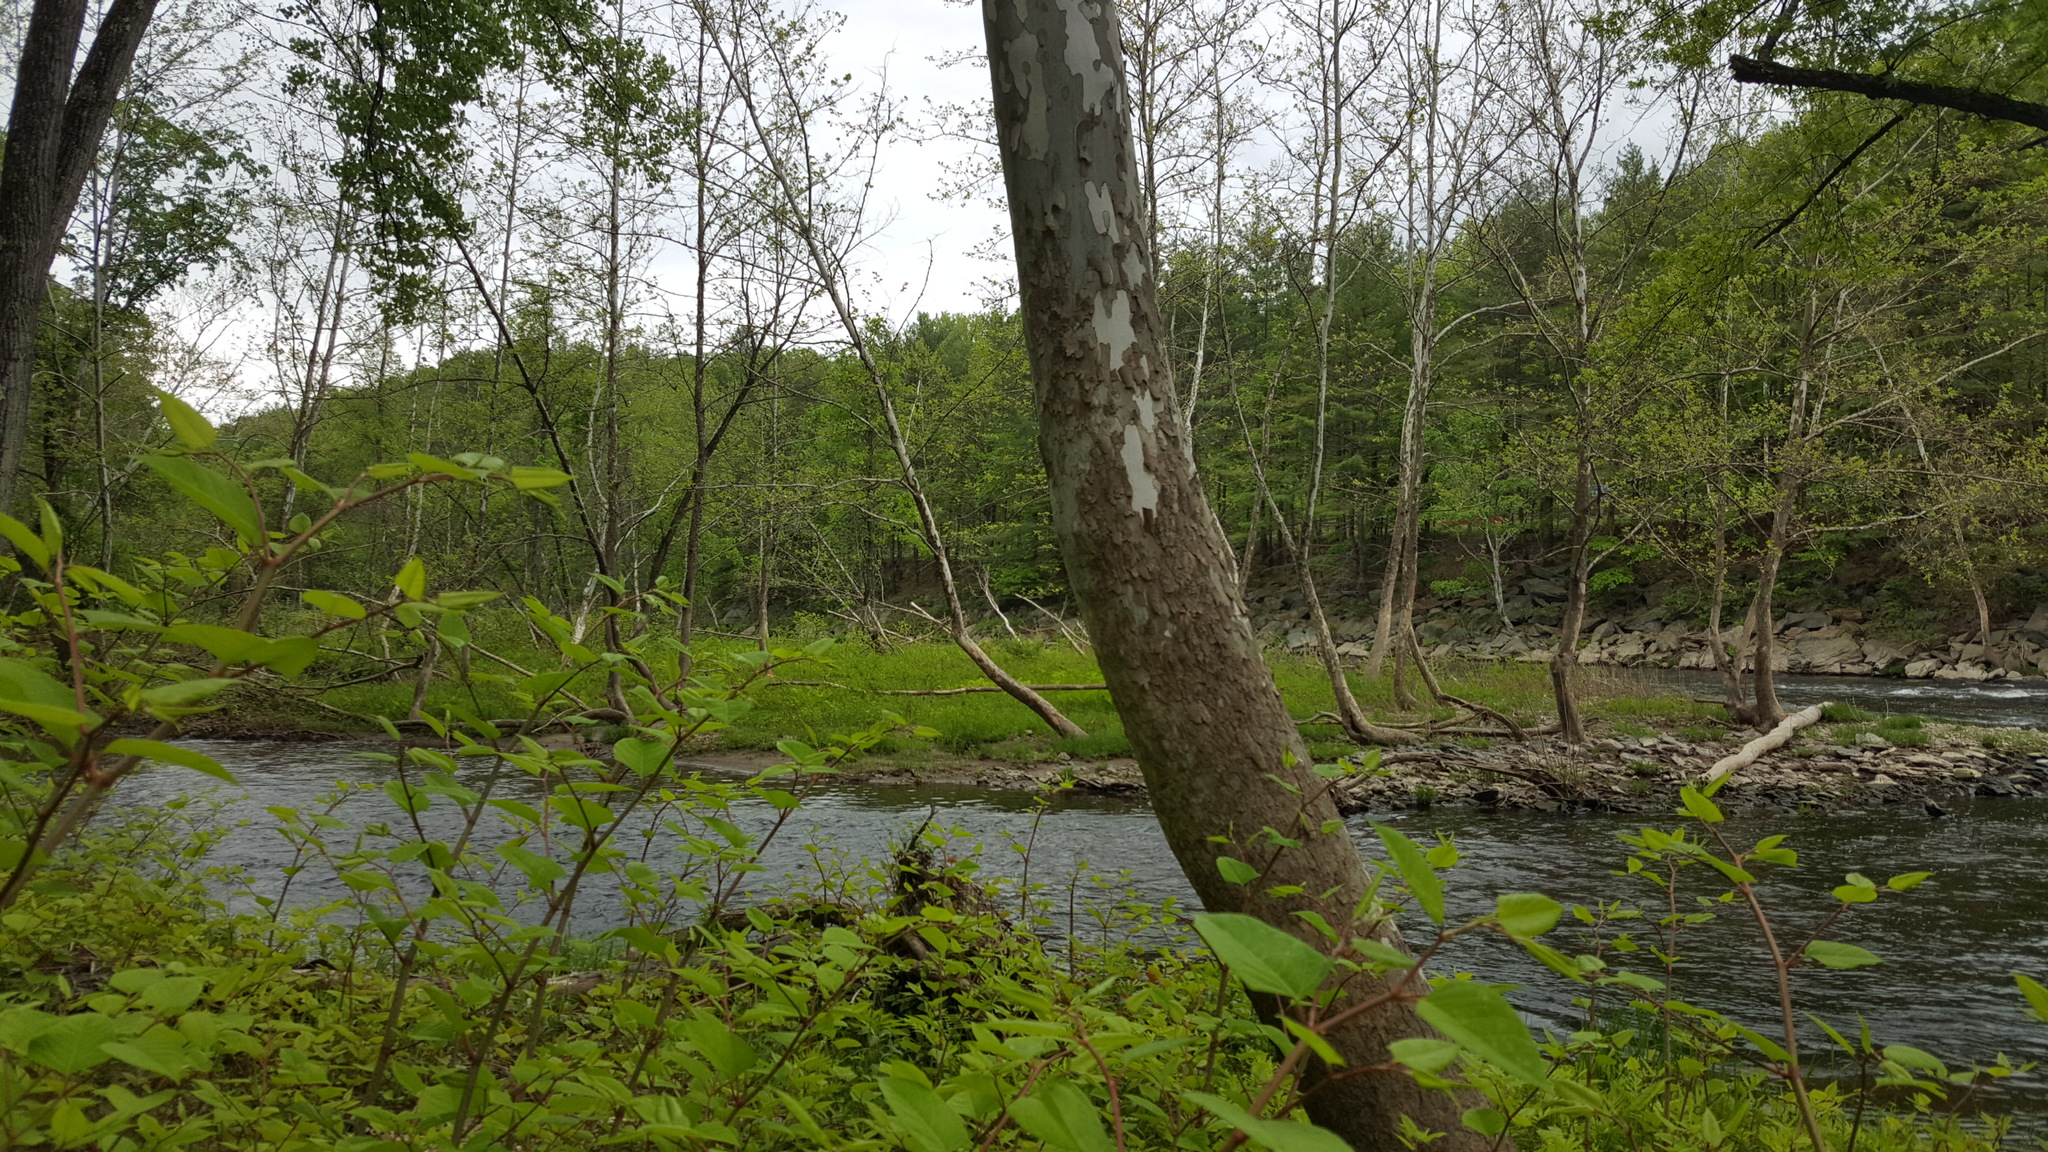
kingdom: Plantae
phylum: Tracheophyta
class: Magnoliopsida
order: Proteales
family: Platanaceae
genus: Platanus
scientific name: Platanus occidentalis
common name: American sycamore
